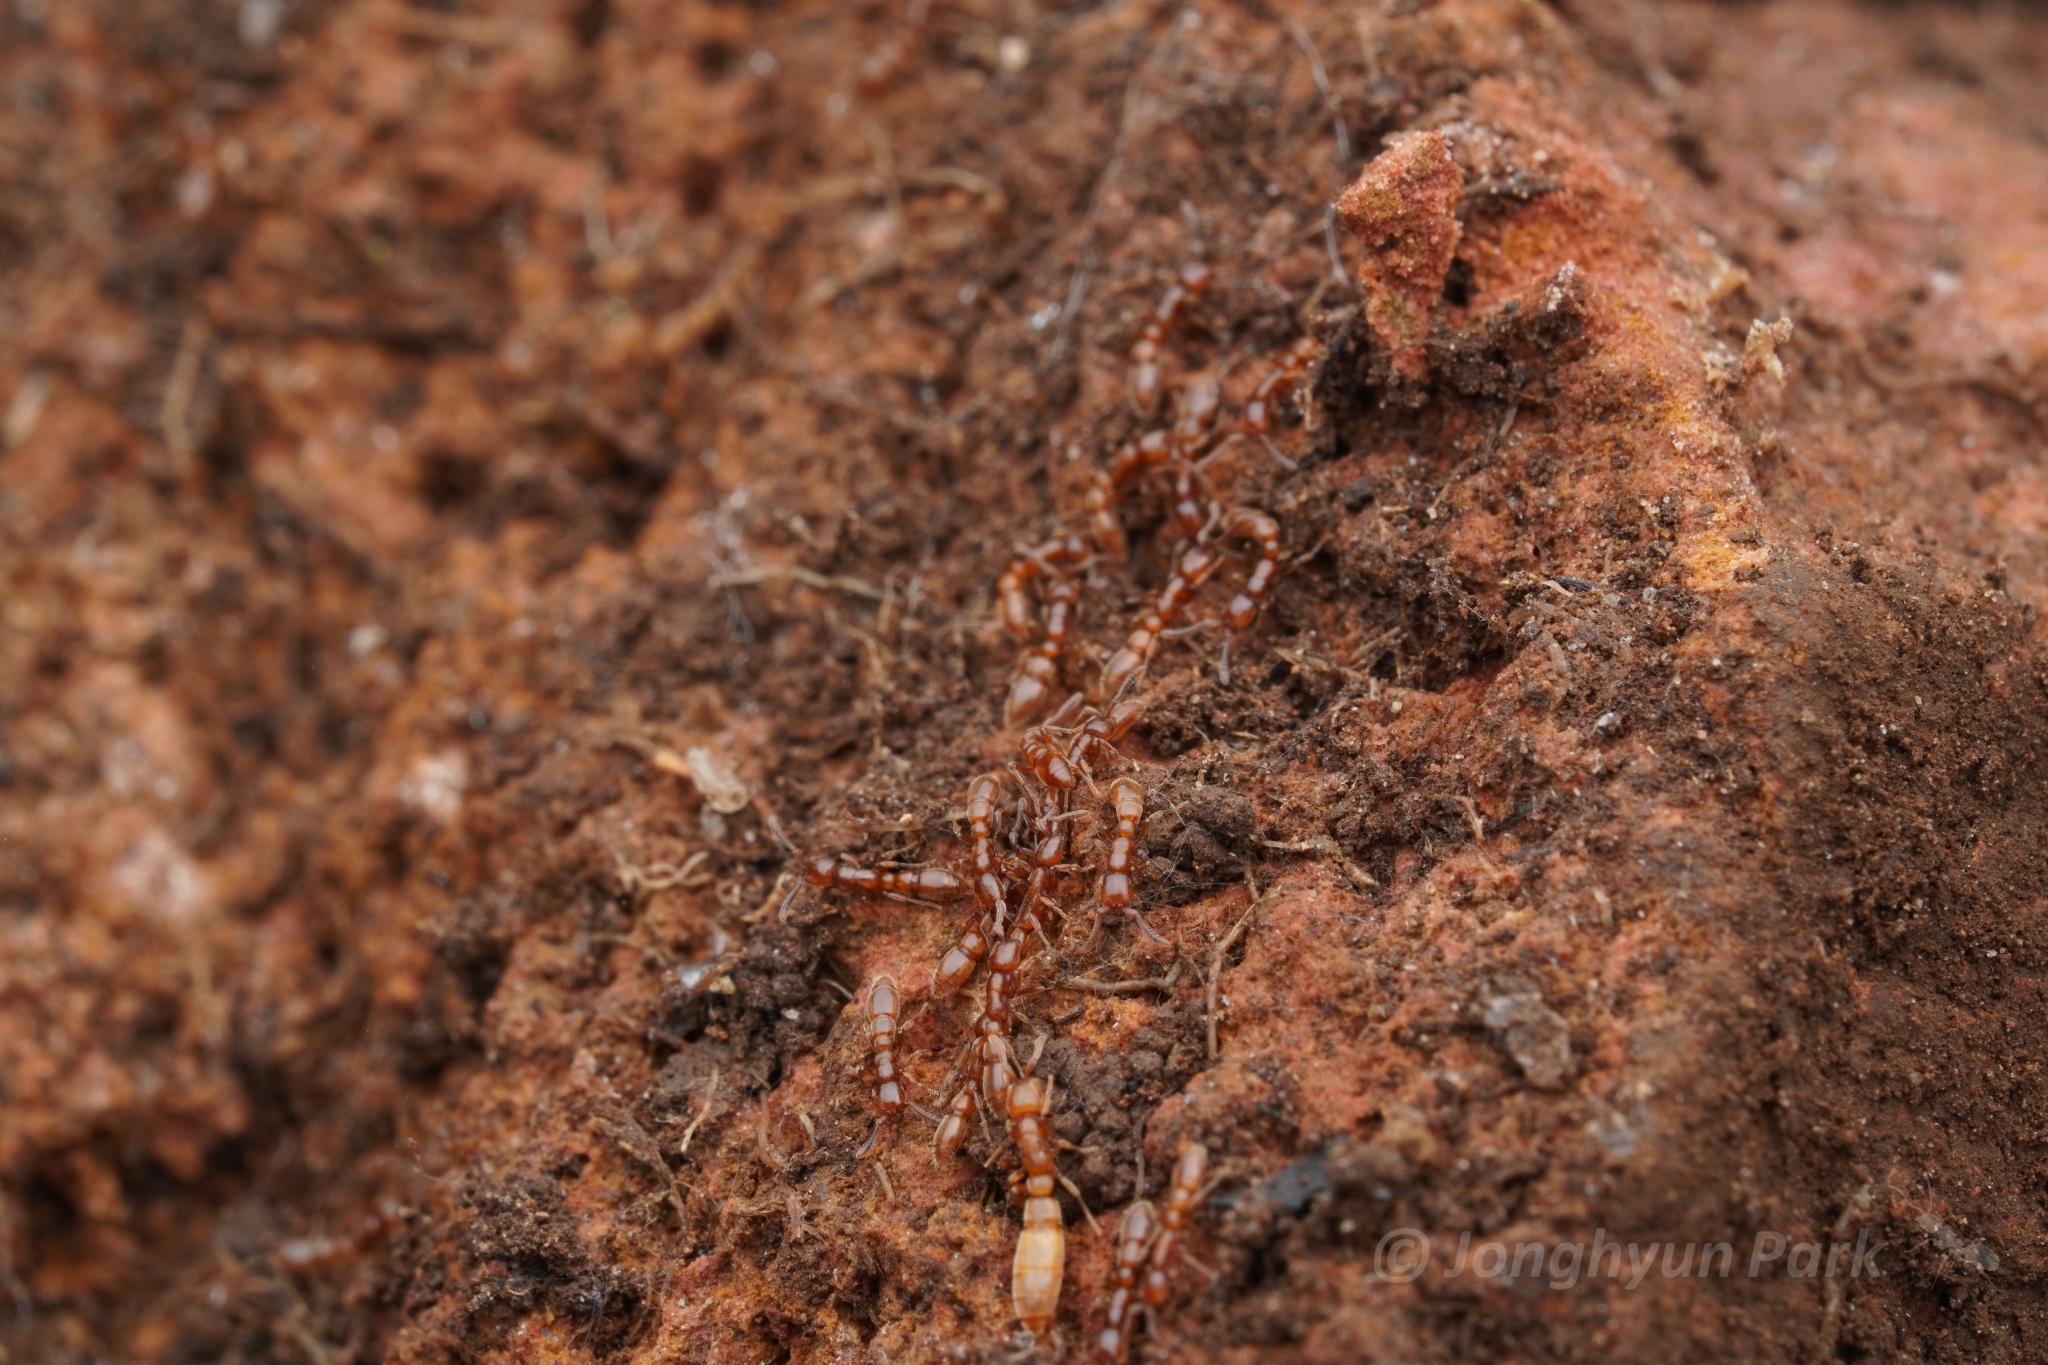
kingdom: Animalia
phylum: Arthropoda
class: Insecta
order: Hymenoptera
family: Formicidae
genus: Eburopone
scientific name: Eburopone
